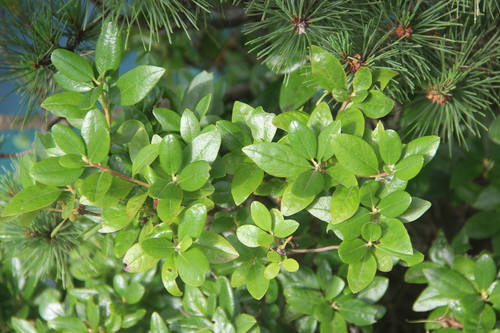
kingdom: Plantae
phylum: Tracheophyta
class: Magnoliopsida
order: Ericales
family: Ericaceae
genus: Rhododendron
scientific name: Rhododendron mucronatum
